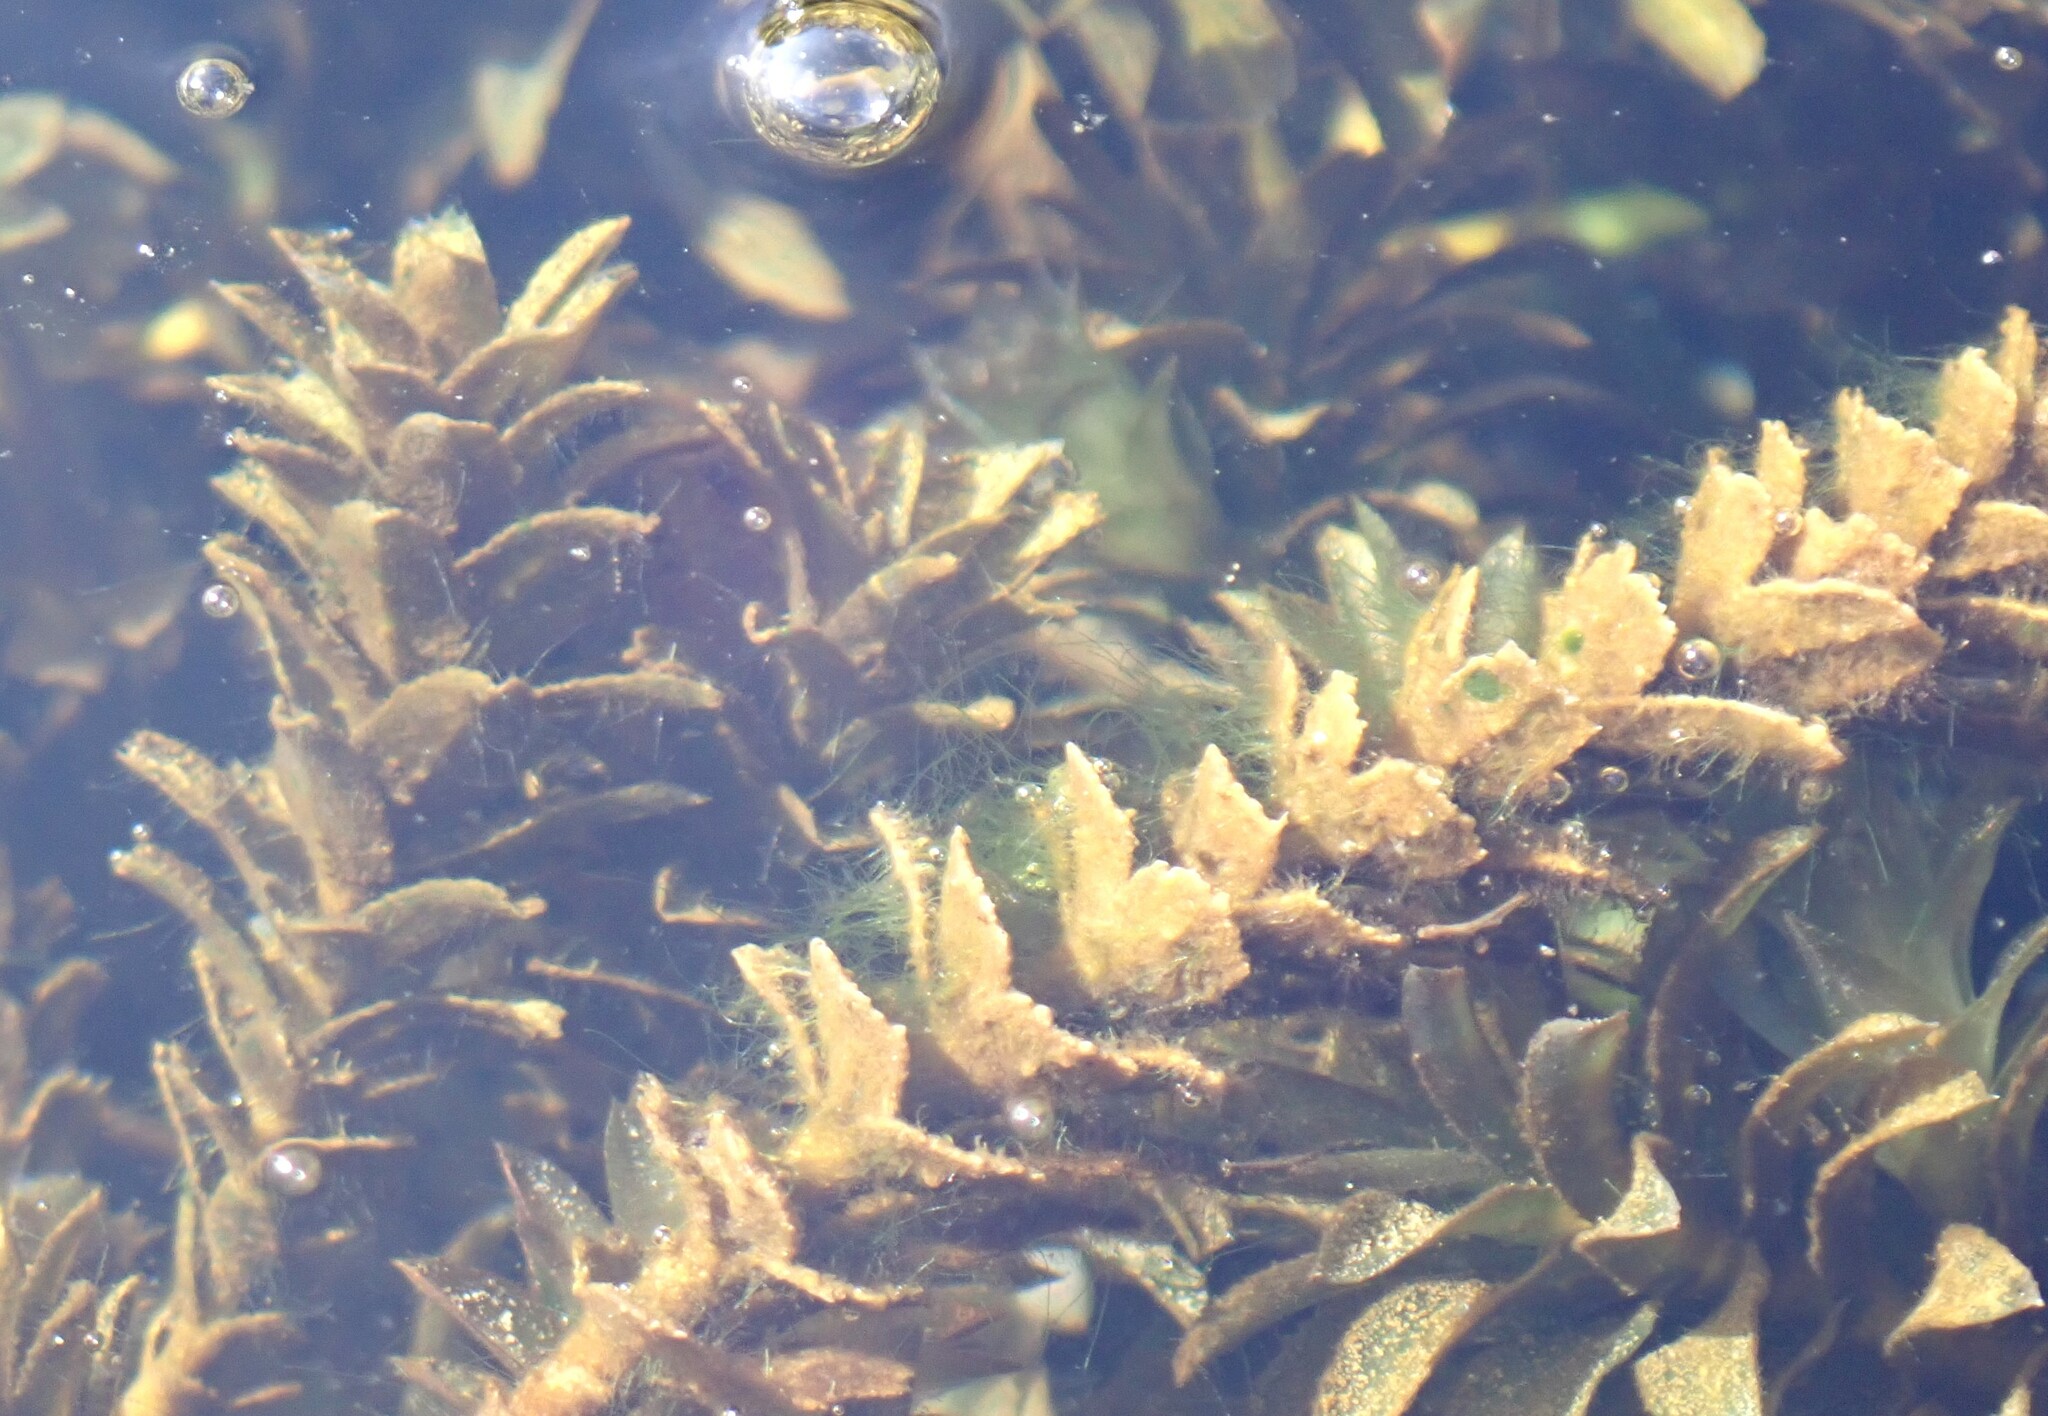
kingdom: Plantae
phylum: Tracheophyta
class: Liliopsida
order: Alismatales
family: Hydrocharitaceae
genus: Hydrilla
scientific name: Hydrilla verticillata
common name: Florida-elodea
